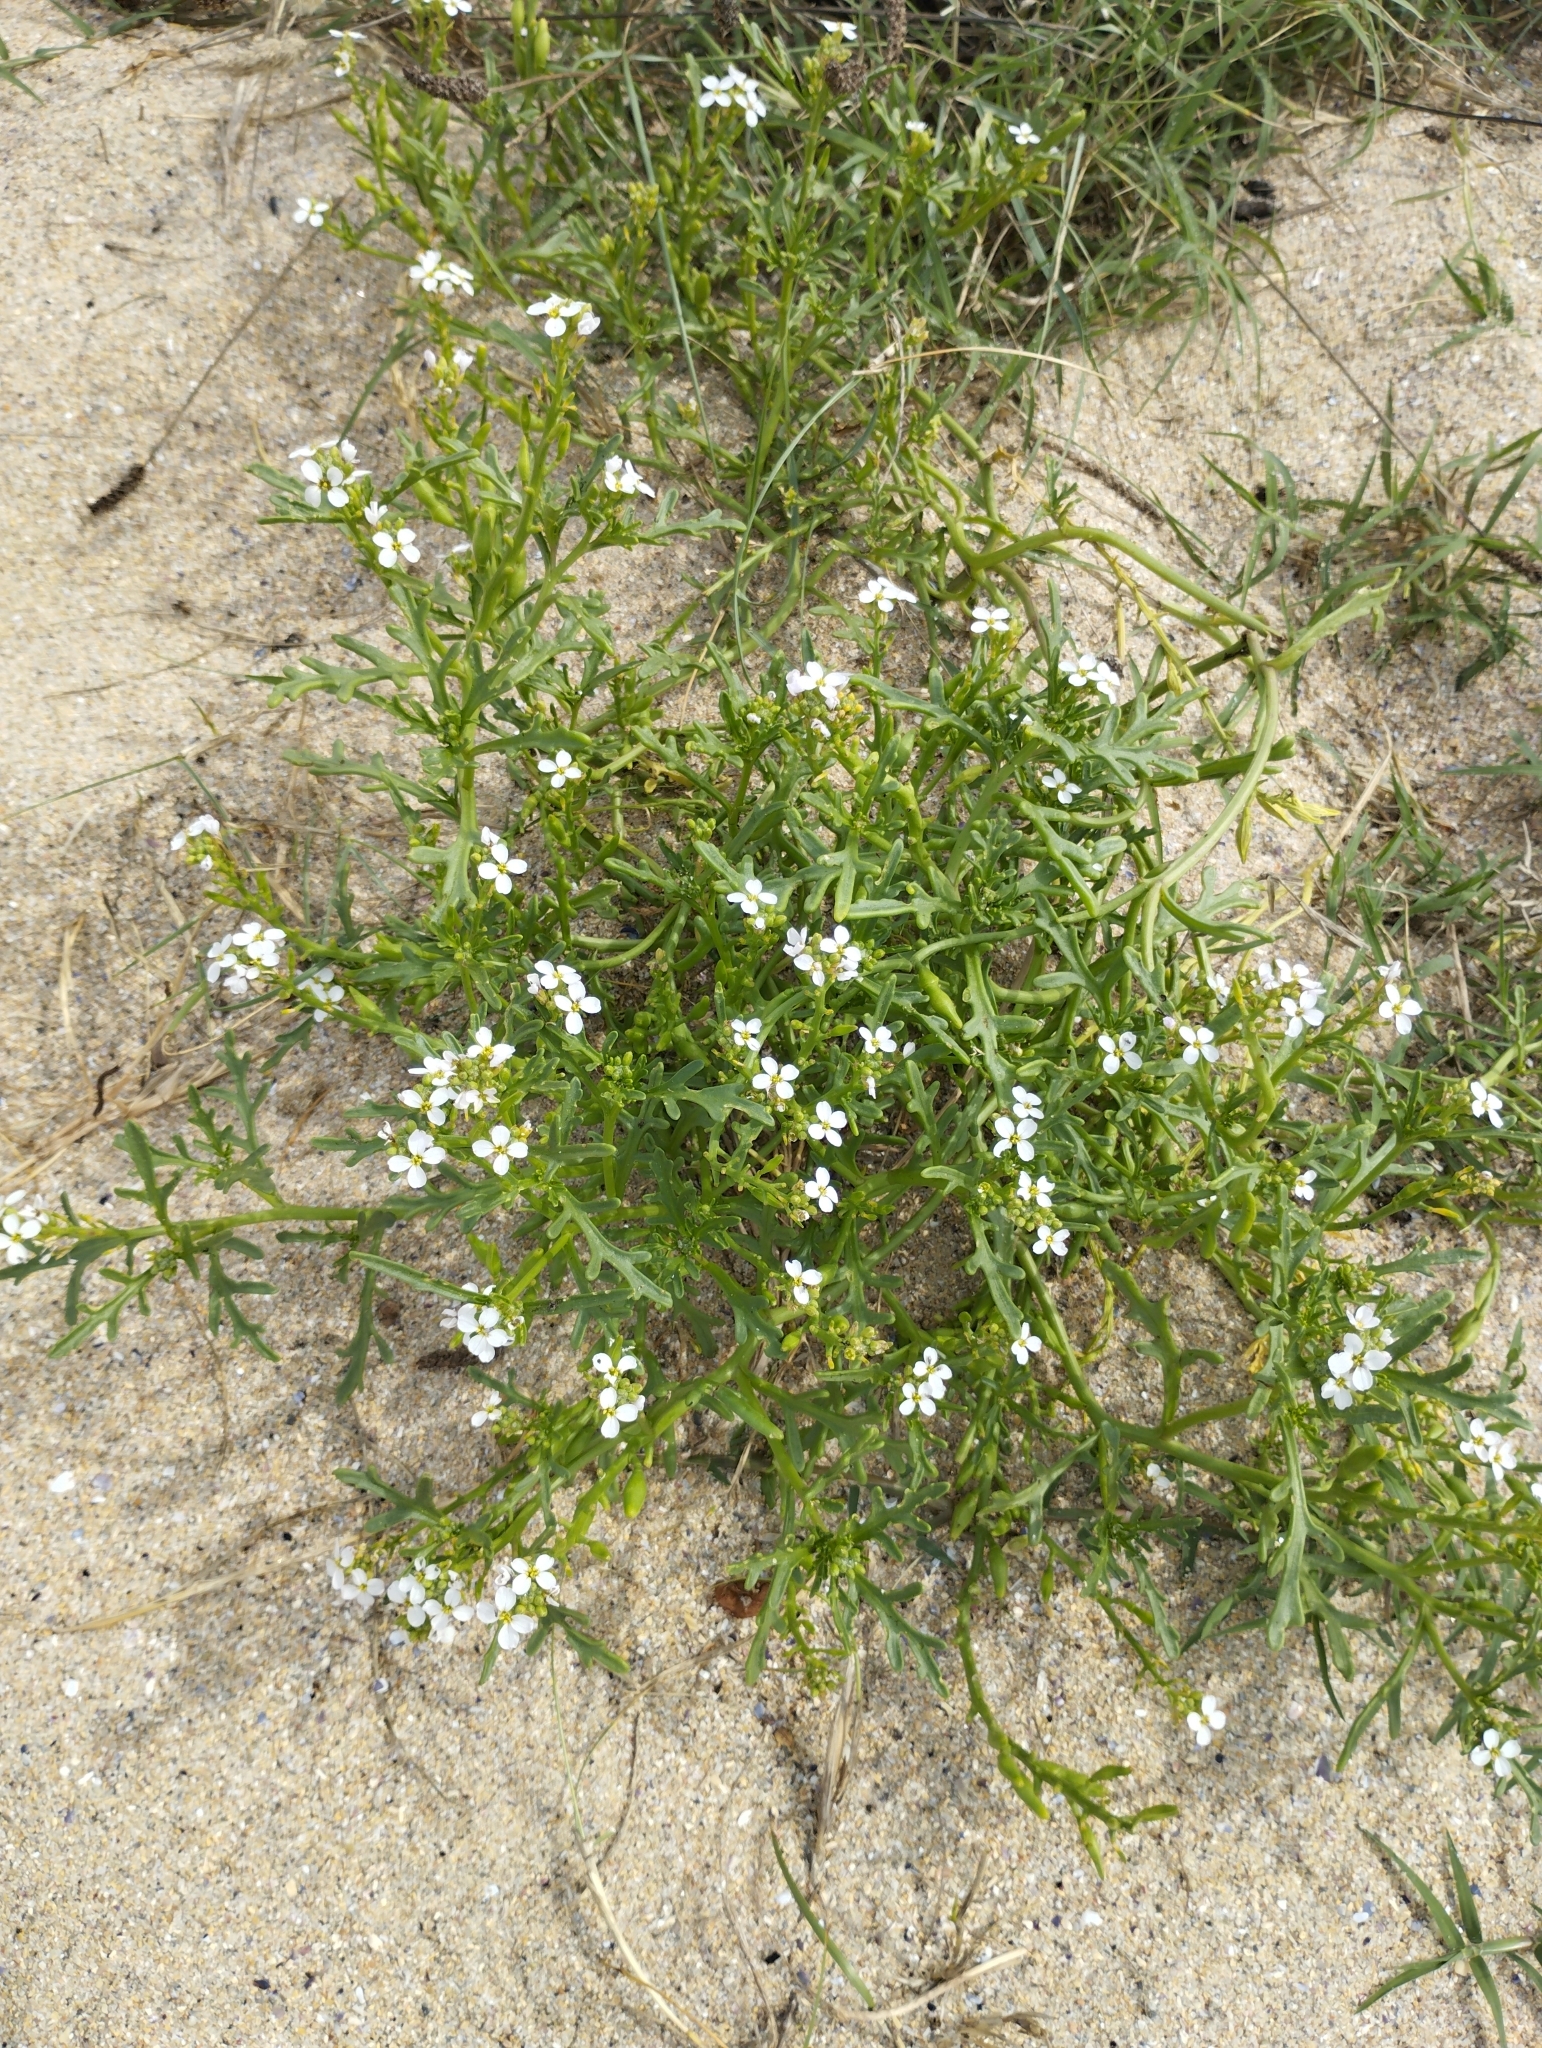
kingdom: Plantae
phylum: Tracheophyta
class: Magnoliopsida
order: Brassicales
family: Brassicaceae
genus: Cakile
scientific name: Cakile maritima
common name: Sea rocket
